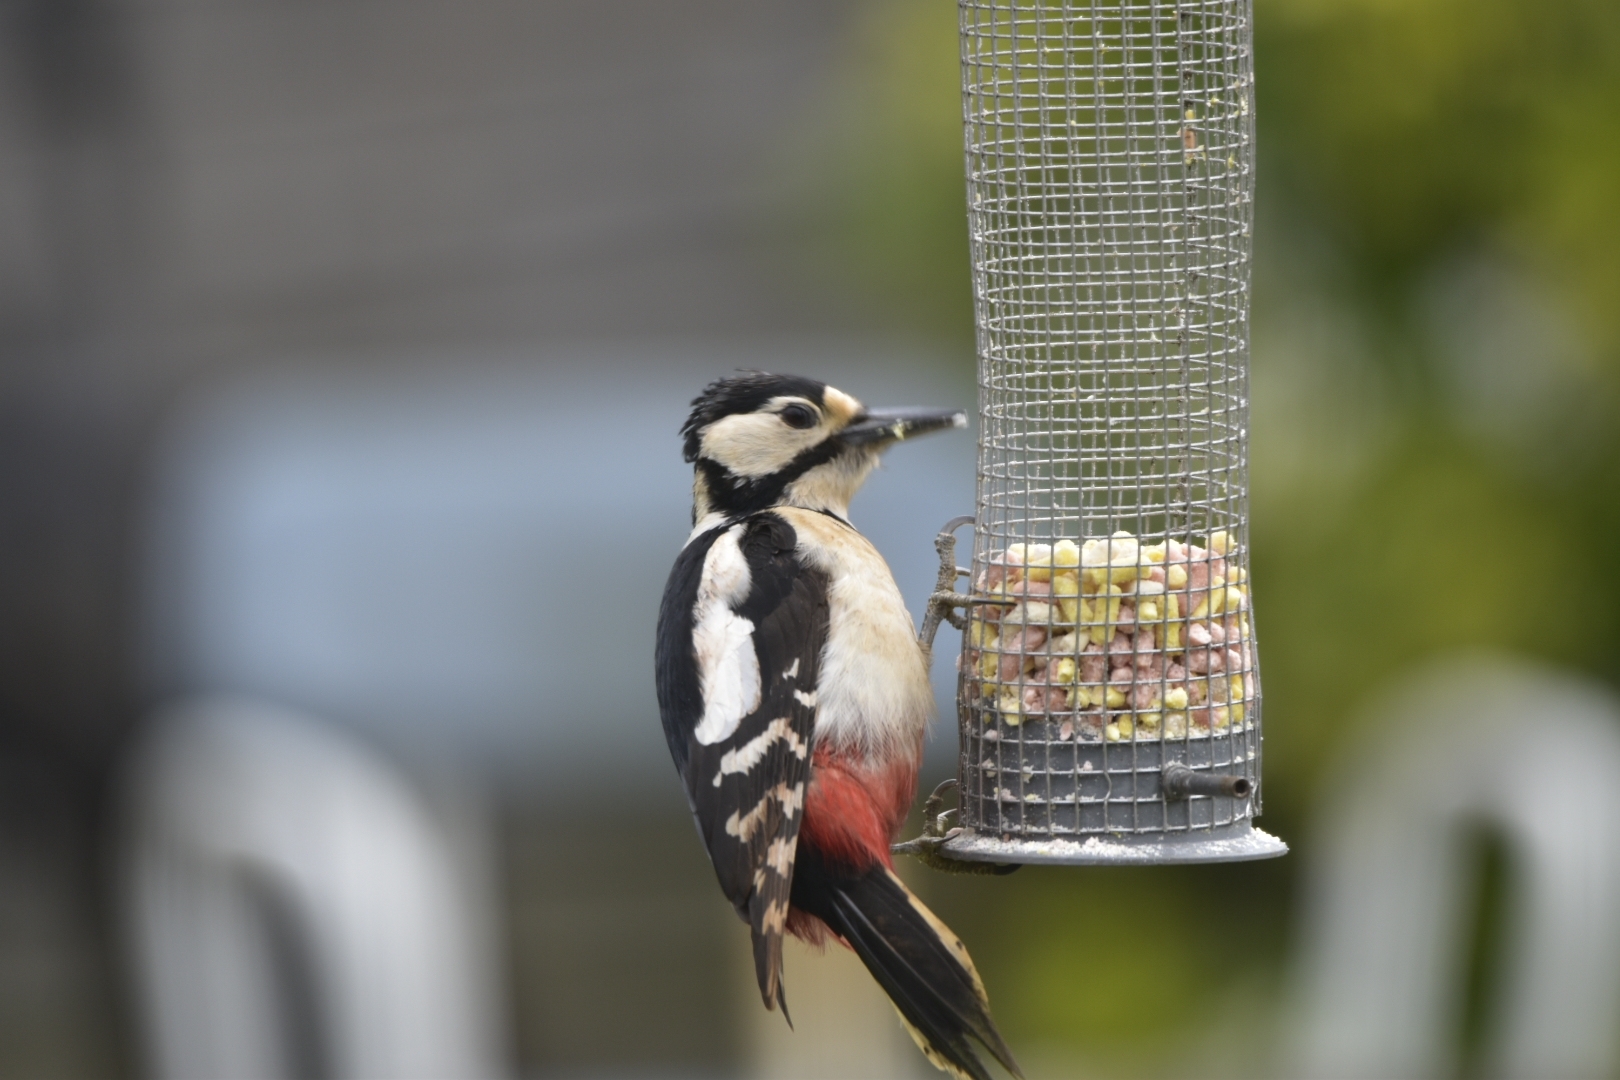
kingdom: Animalia
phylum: Chordata
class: Aves
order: Piciformes
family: Picidae
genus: Dendrocopos
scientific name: Dendrocopos major
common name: Great spotted woodpecker
